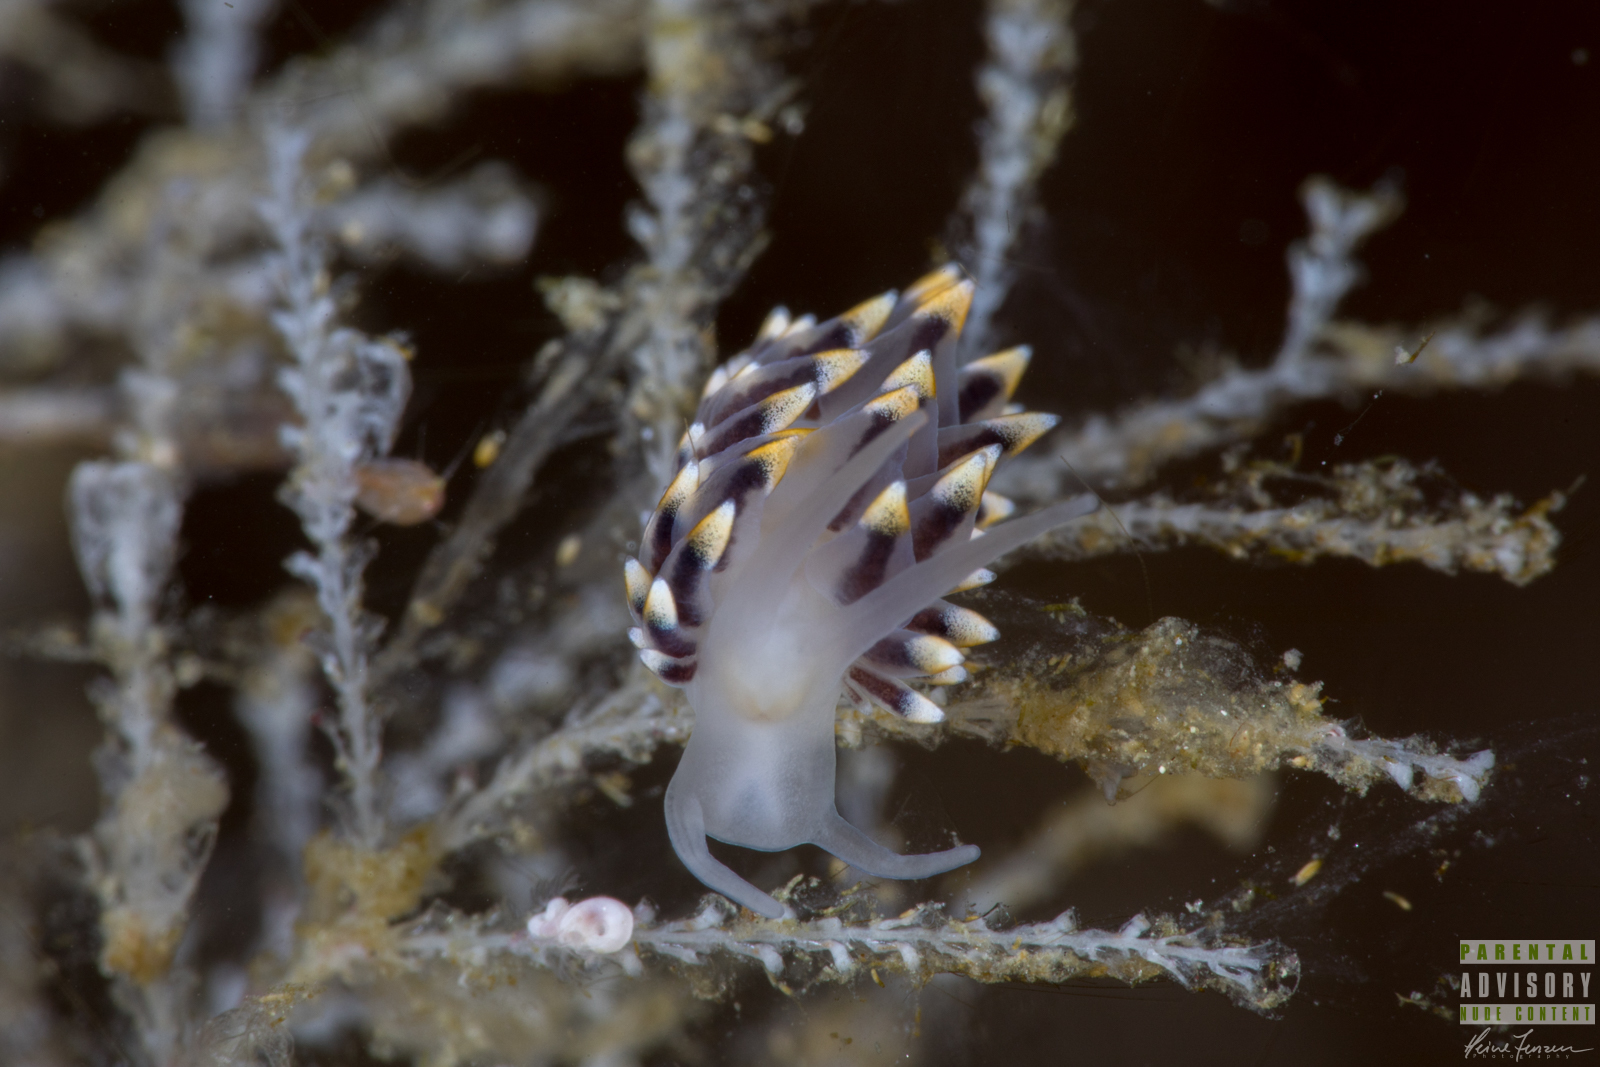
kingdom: Animalia
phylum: Mollusca
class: Gastropoda
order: Nudibranchia
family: Eubranchidae
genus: Eubranchus
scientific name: Eubranchus tricolor
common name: Painted balloon aeolis
